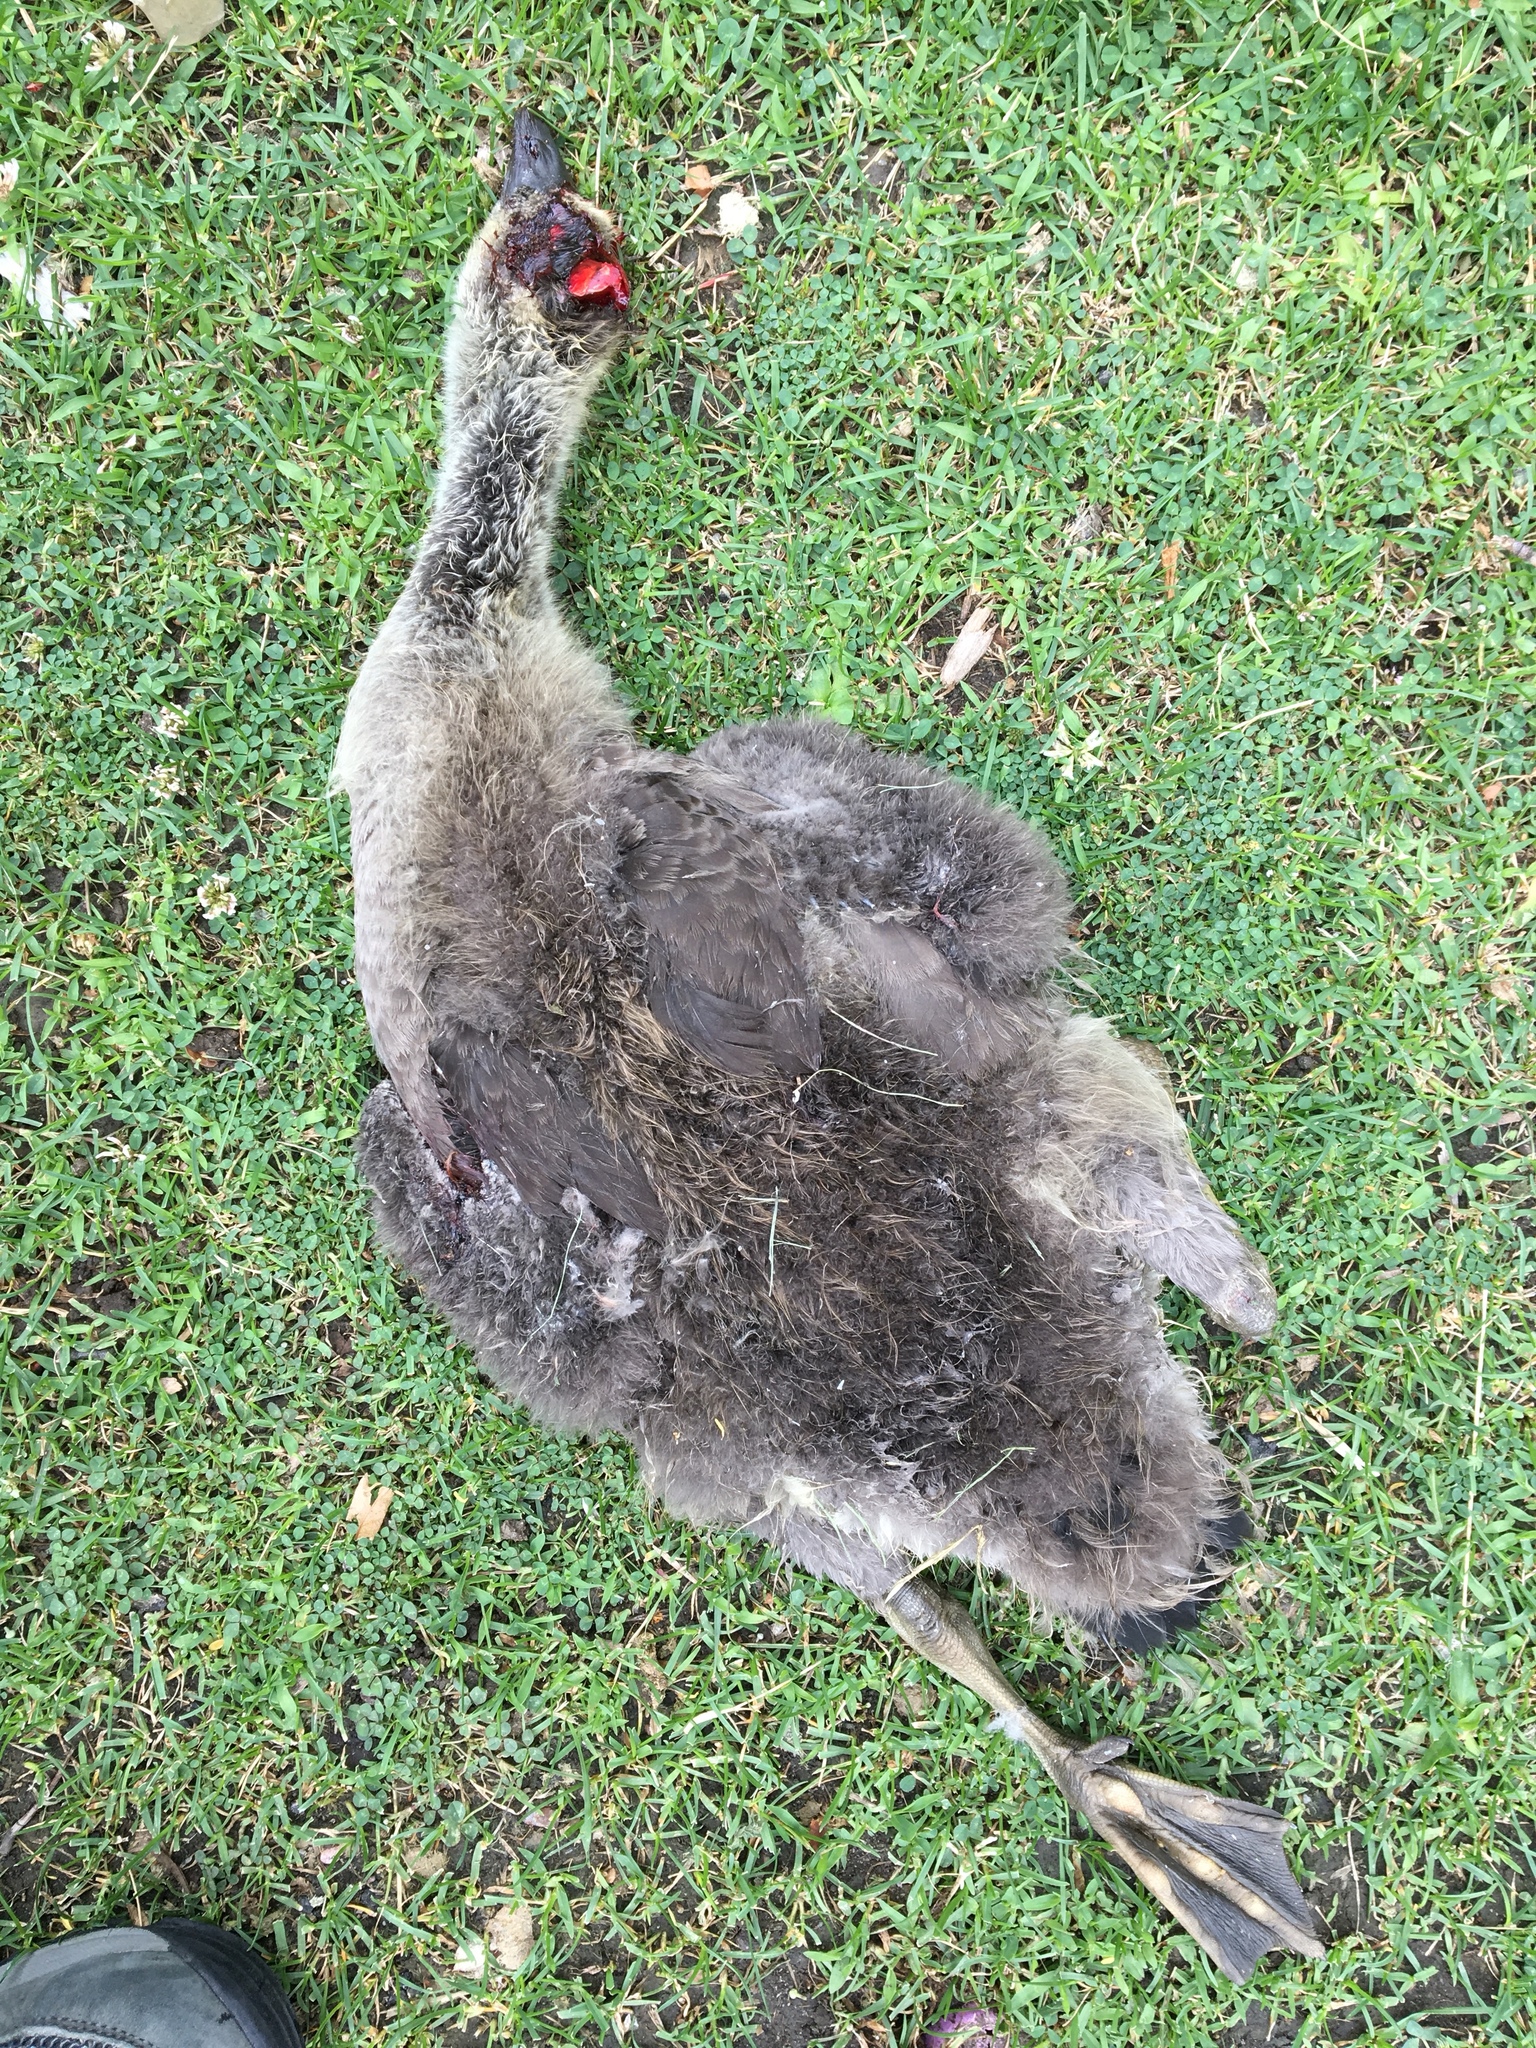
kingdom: Animalia
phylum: Chordata
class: Aves
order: Anseriformes
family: Anatidae
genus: Branta
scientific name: Branta canadensis
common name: Canada goose
